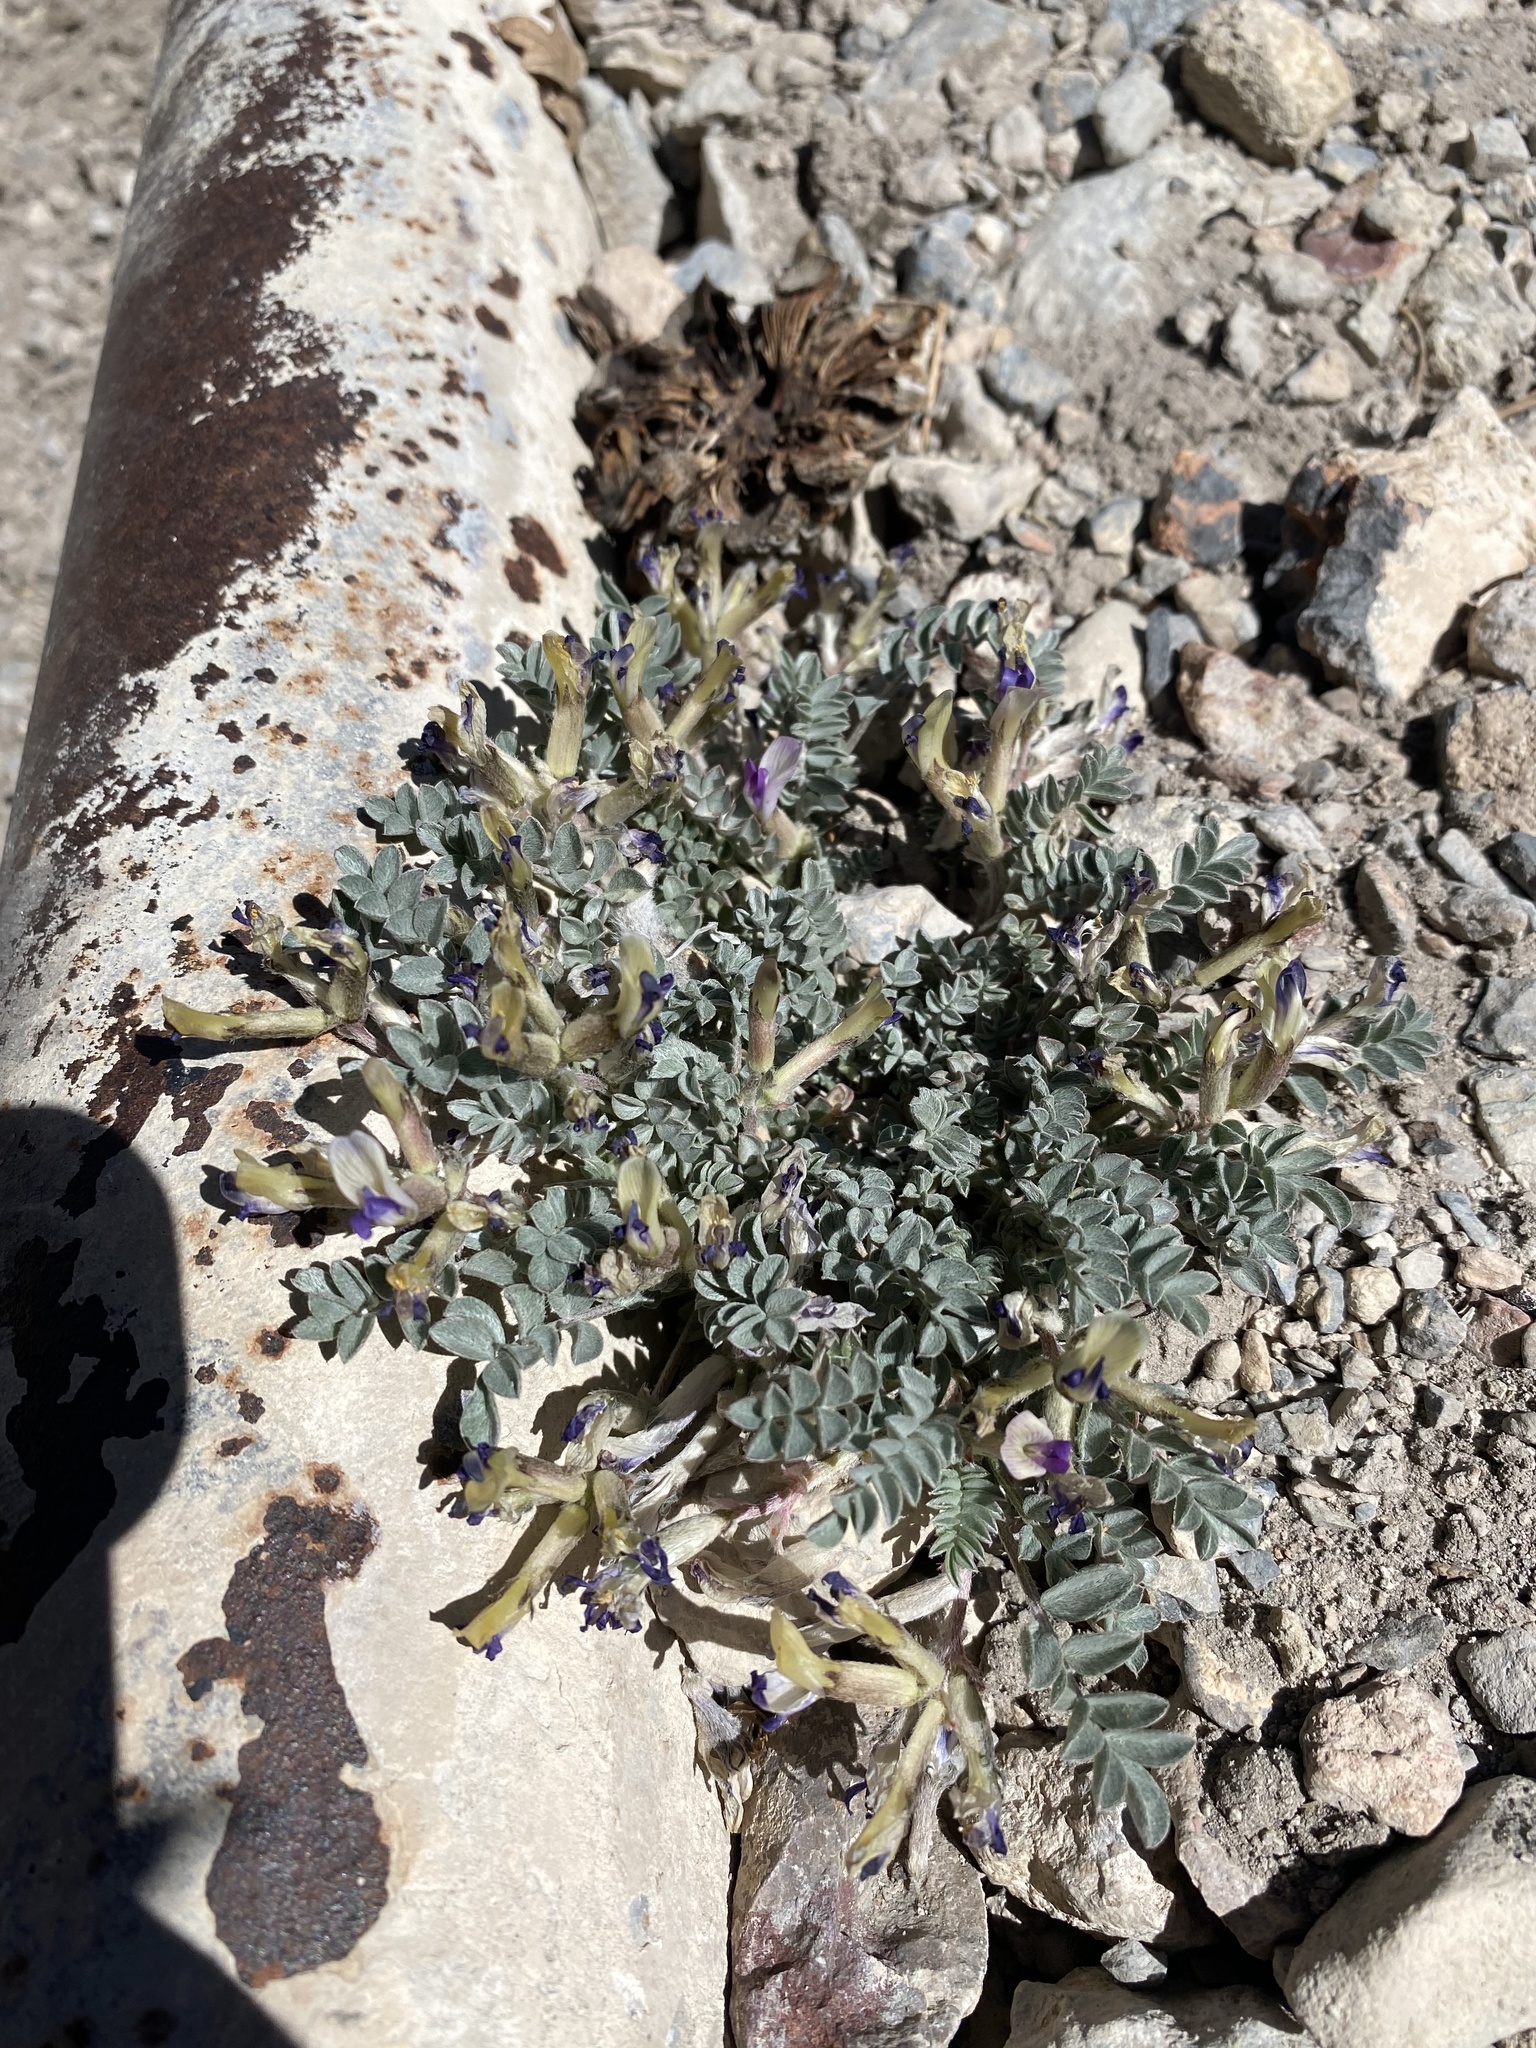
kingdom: Plantae
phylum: Tracheophyta
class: Magnoliopsida
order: Fabales
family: Fabaceae
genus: Astragalus
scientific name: Astragalus piutensis
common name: Sevier milkvetch
